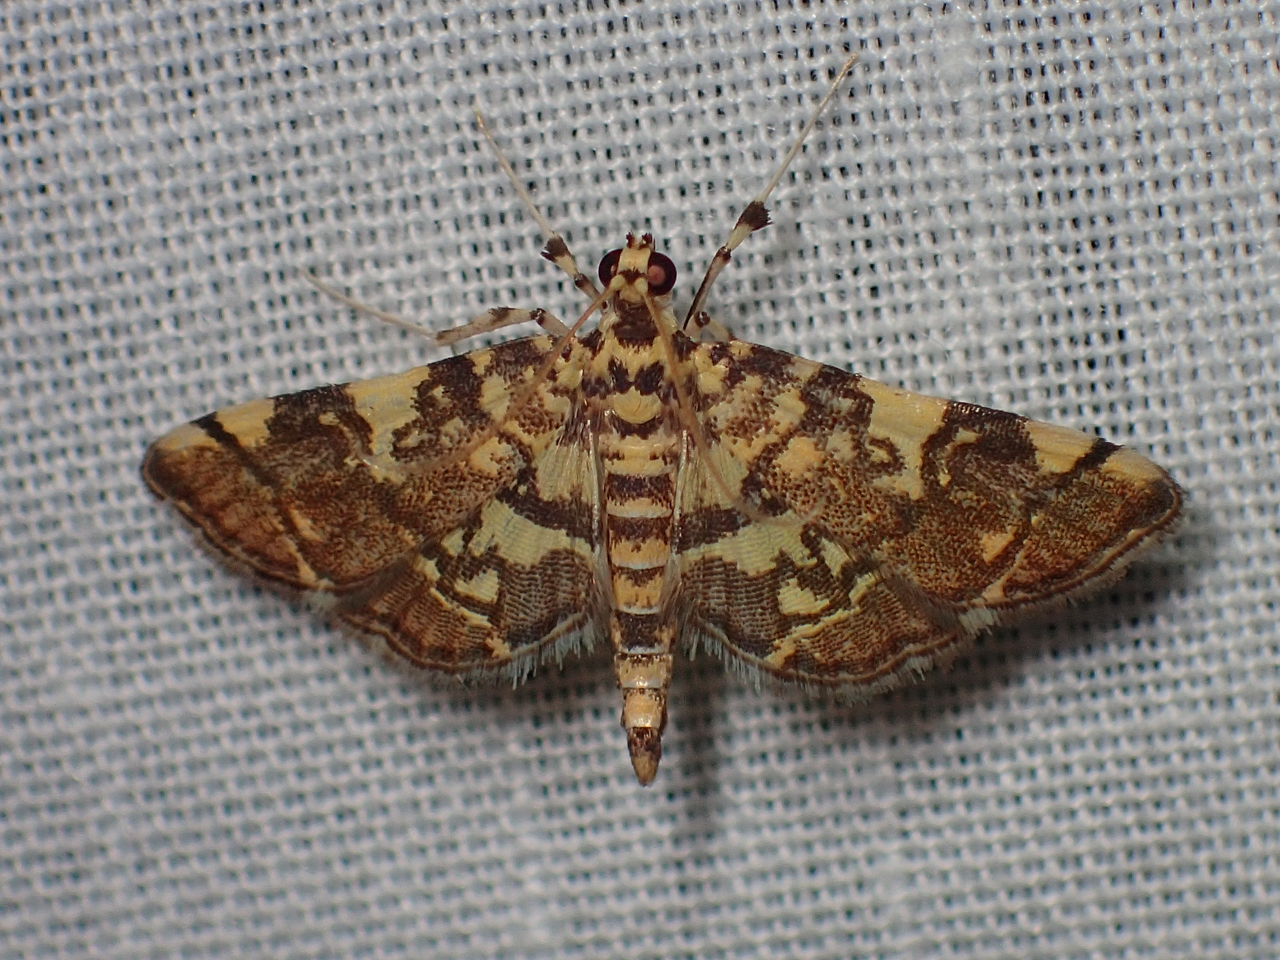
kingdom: Animalia
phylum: Arthropoda
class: Insecta
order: Lepidoptera
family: Crambidae
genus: Apogeshna
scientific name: Apogeshna stenialis
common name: Checkered apogeshna moth
